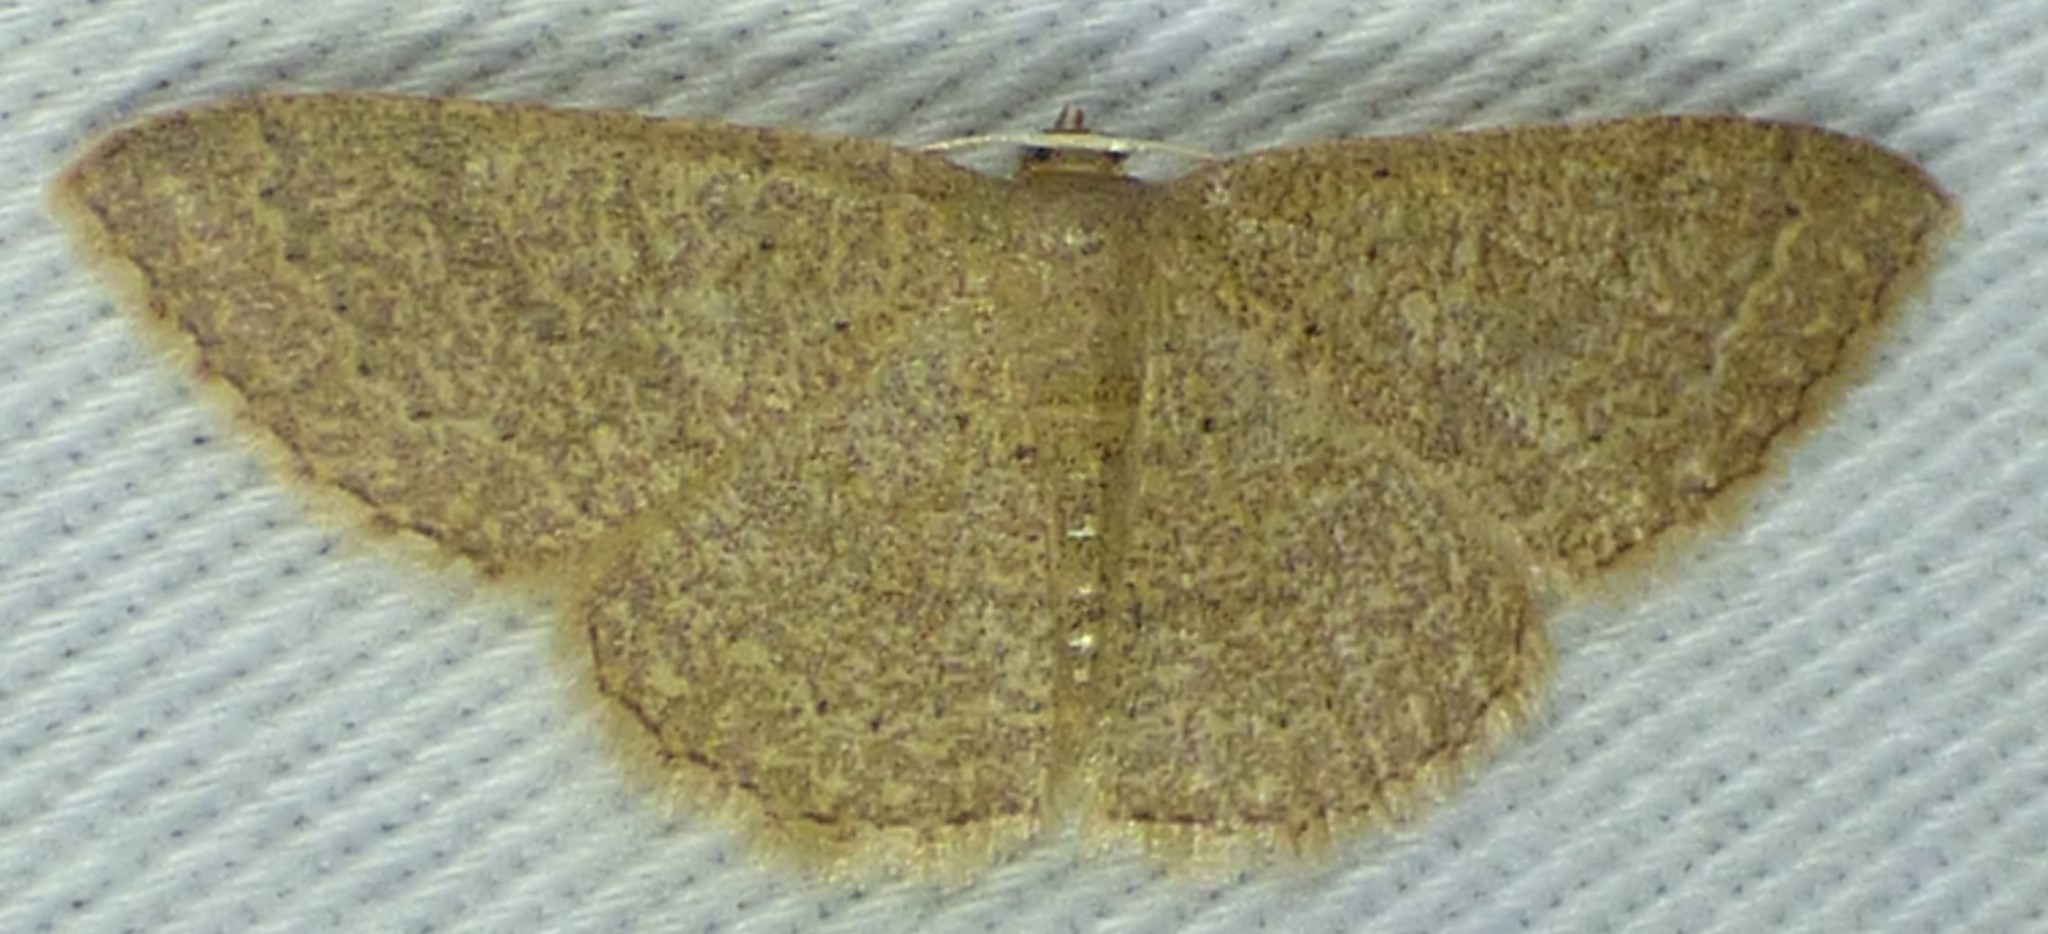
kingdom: Animalia
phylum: Arthropoda
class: Insecta
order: Lepidoptera
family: Geometridae
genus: Pleuroprucha
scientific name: Pleuroprucha insulsaria
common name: Common tan wave
